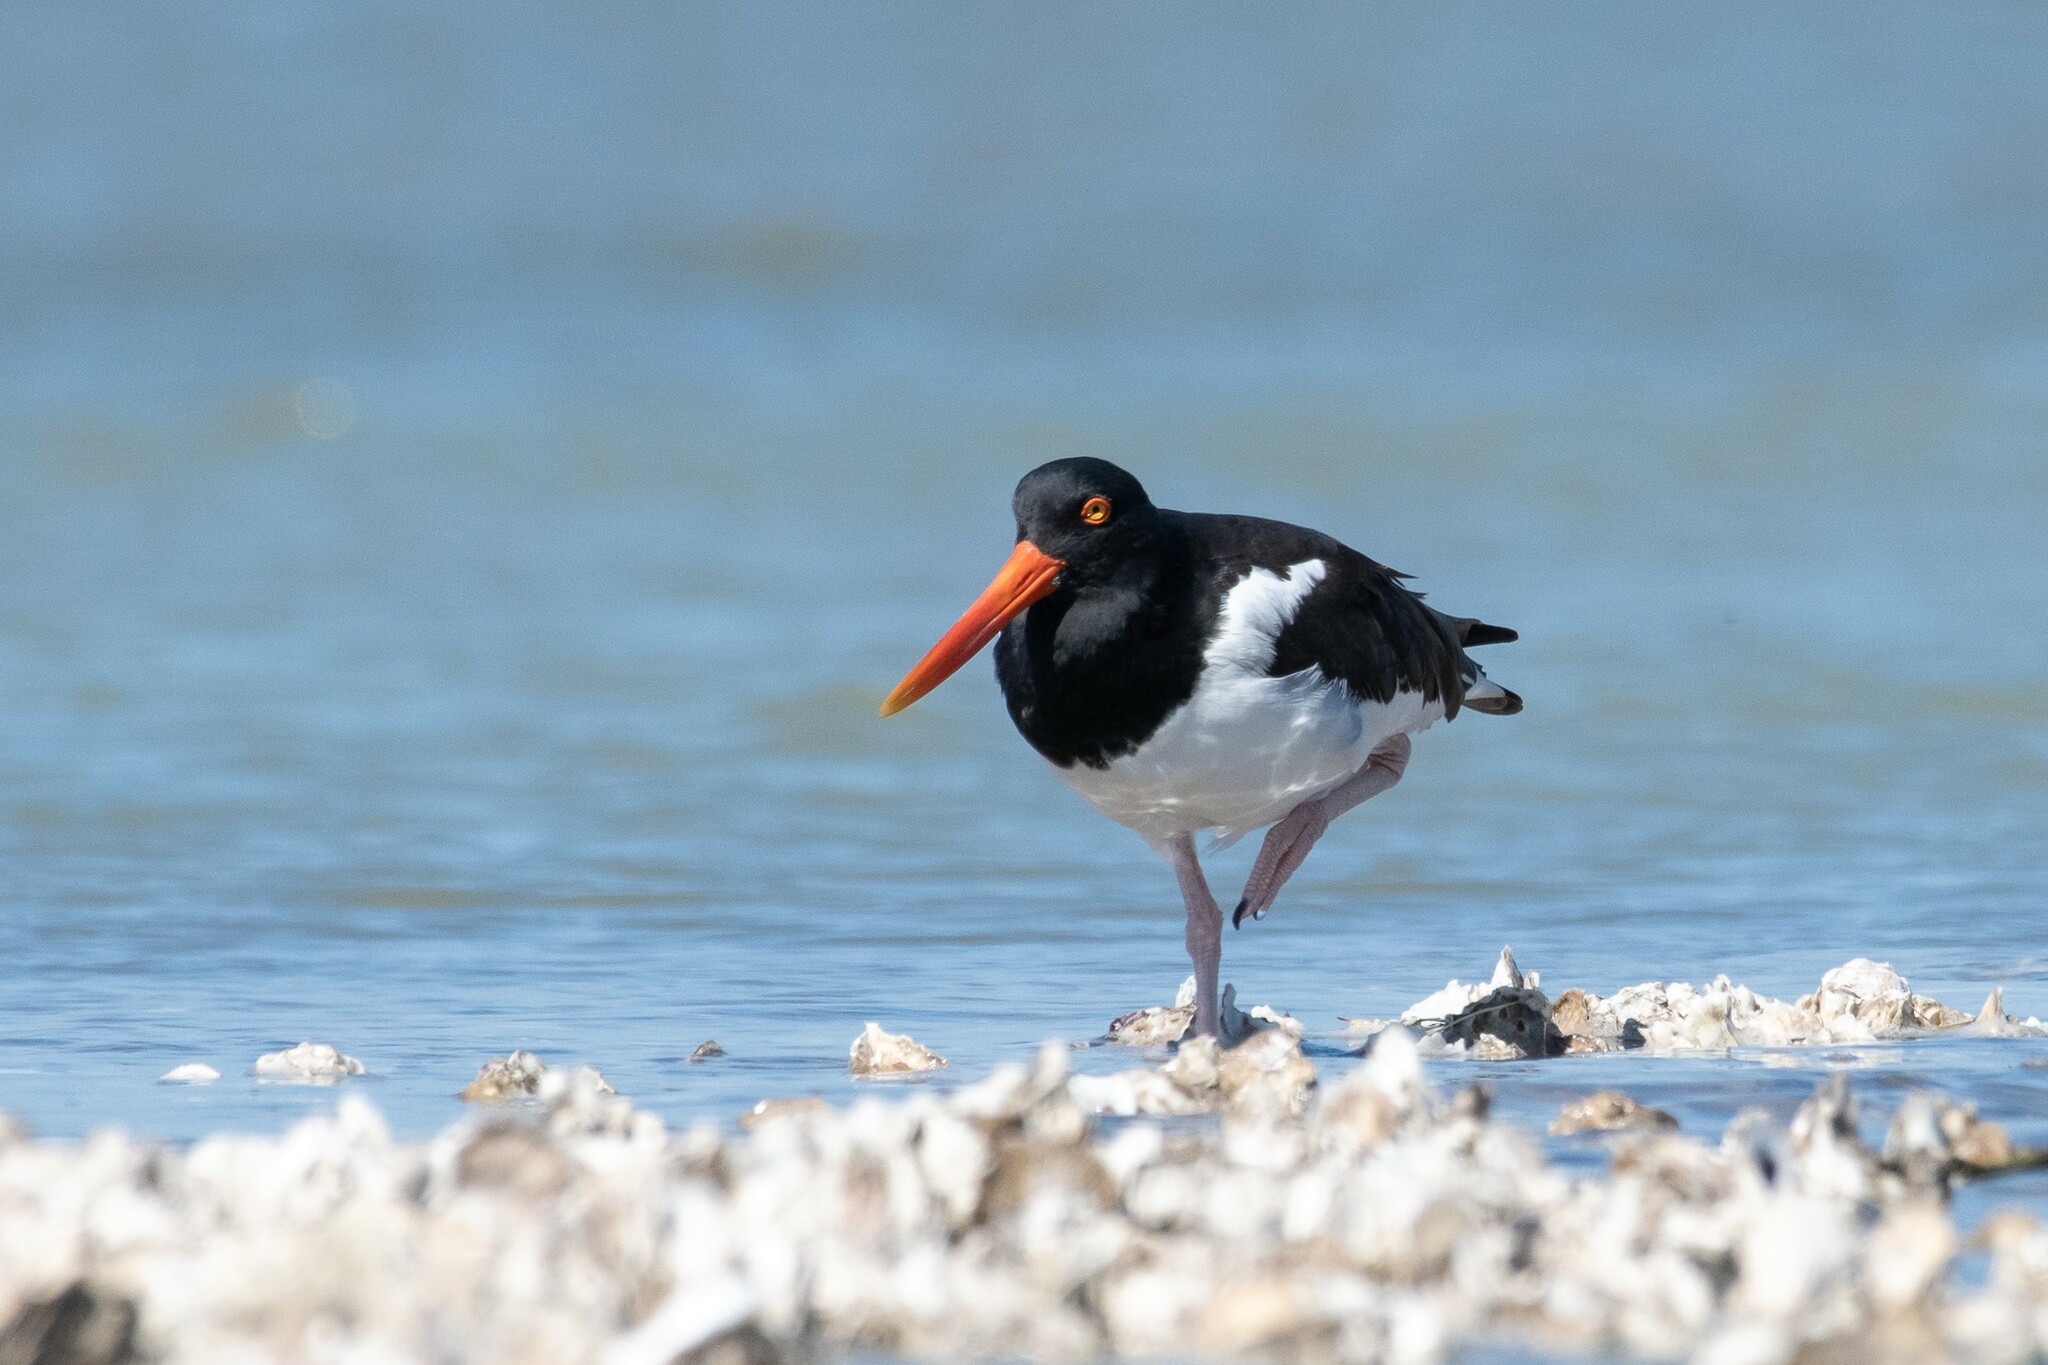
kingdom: Animalia
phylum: Chordata
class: Aves
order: Charadriiformes
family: Haematopodidae
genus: Haematopus
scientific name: Haematopus palliatus
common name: American oystercatcher
